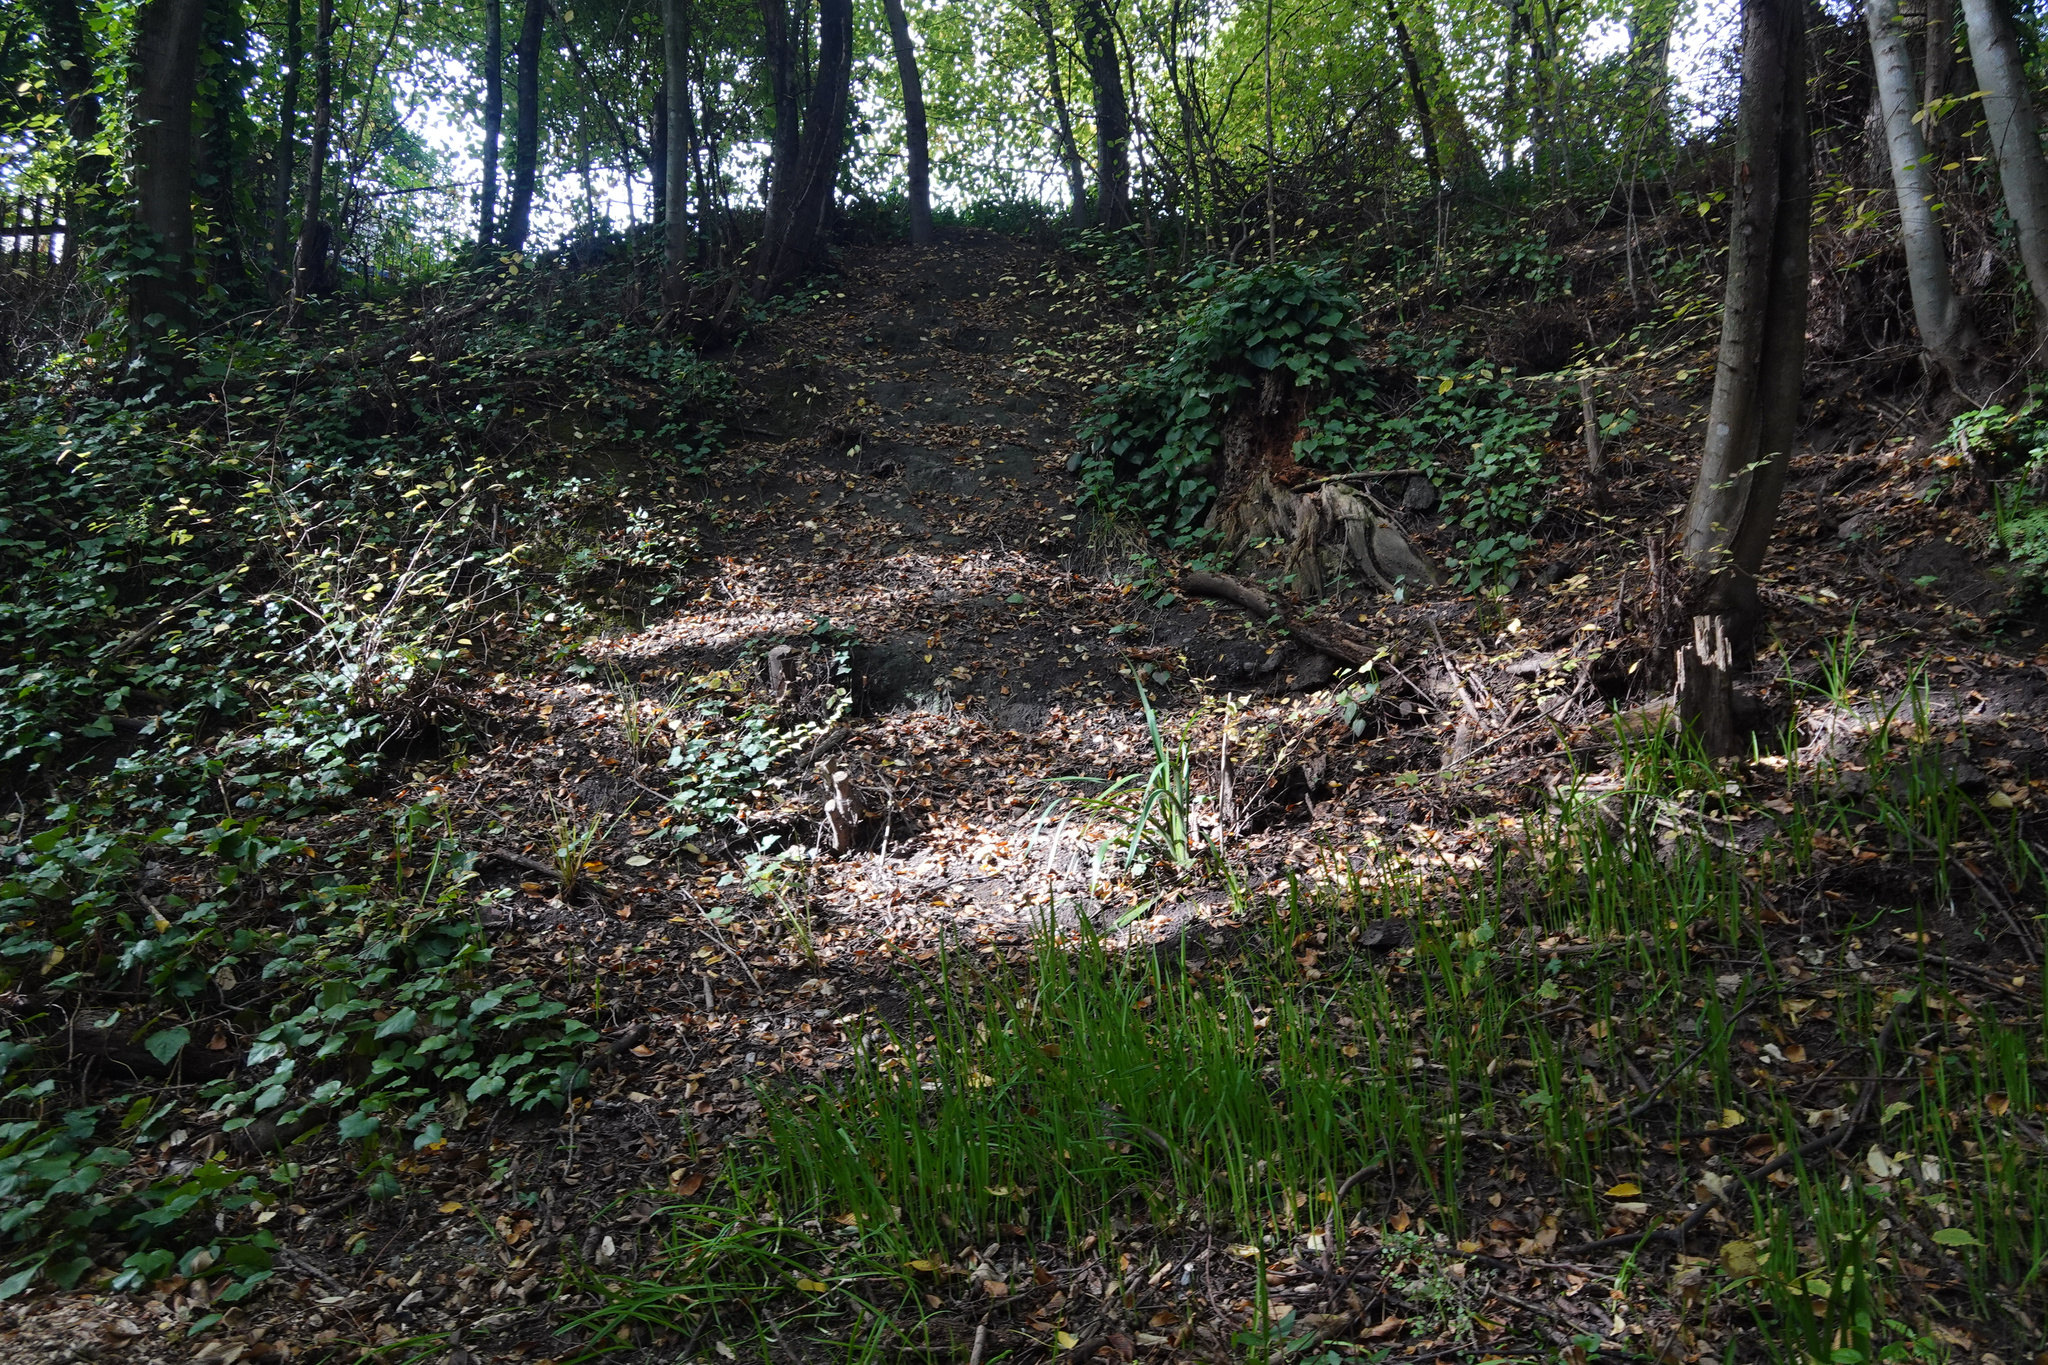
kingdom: Plantae
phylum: Tracheophyta
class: Magnoliopsida
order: Apiales
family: Araliaceae
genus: Hedera
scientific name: Hedera helix
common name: Ivy
